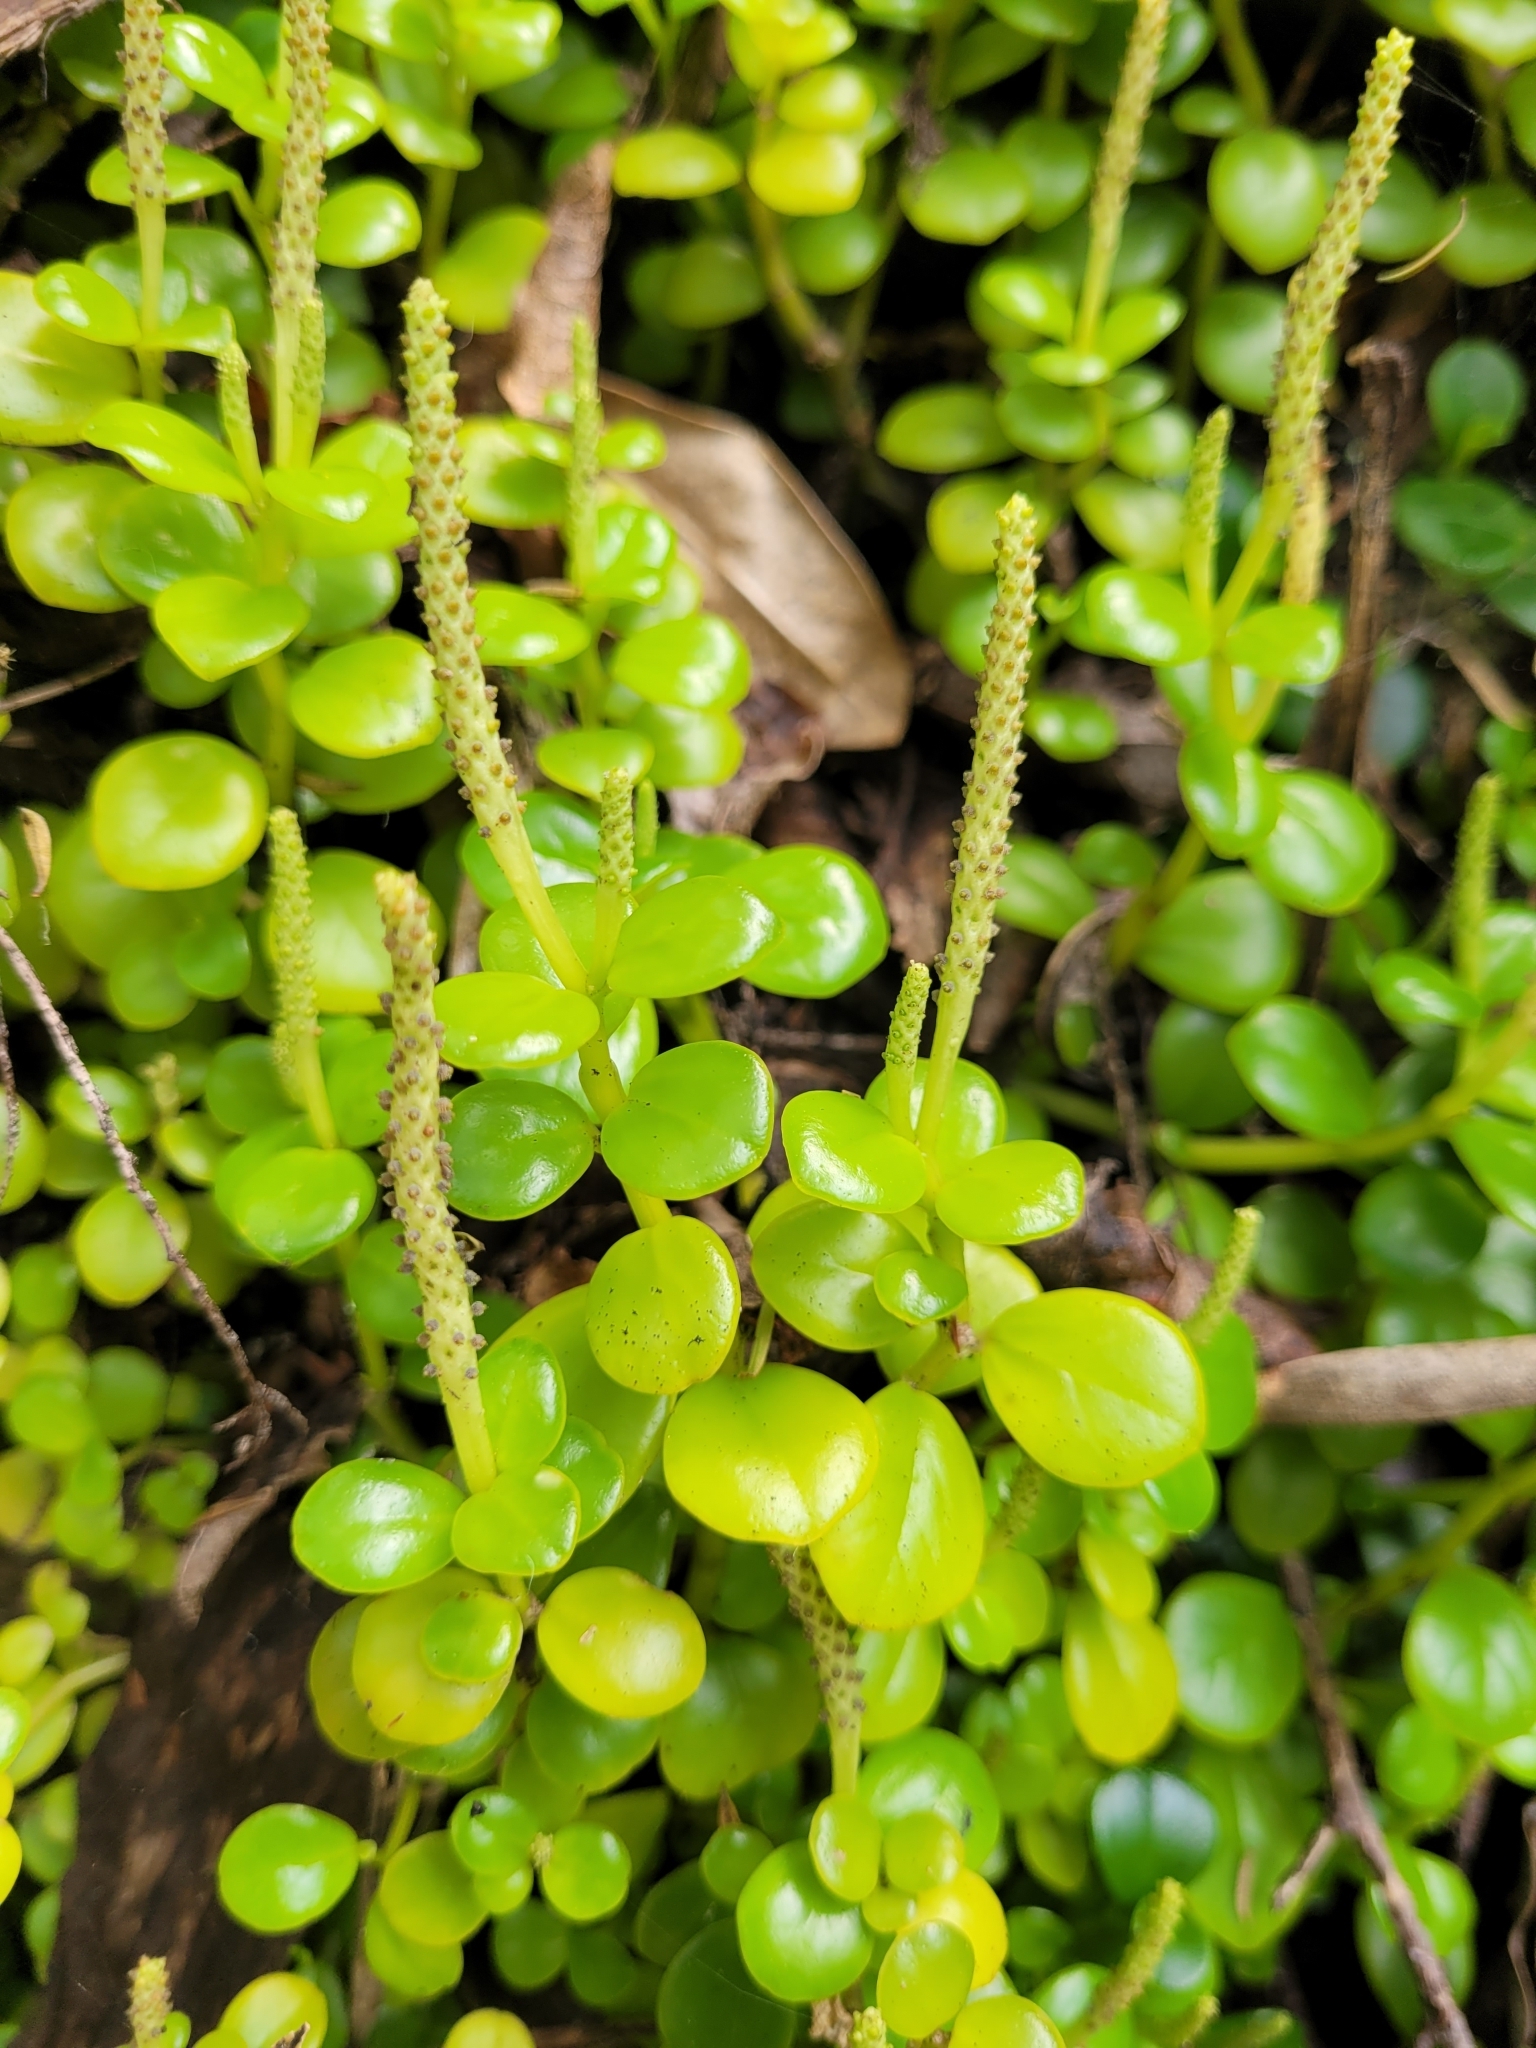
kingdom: Plantae
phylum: Tracheophyta
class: Magnoliopsida
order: Piperales
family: Piperaceae
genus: Peperomia
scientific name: Peperomia urvilleana
